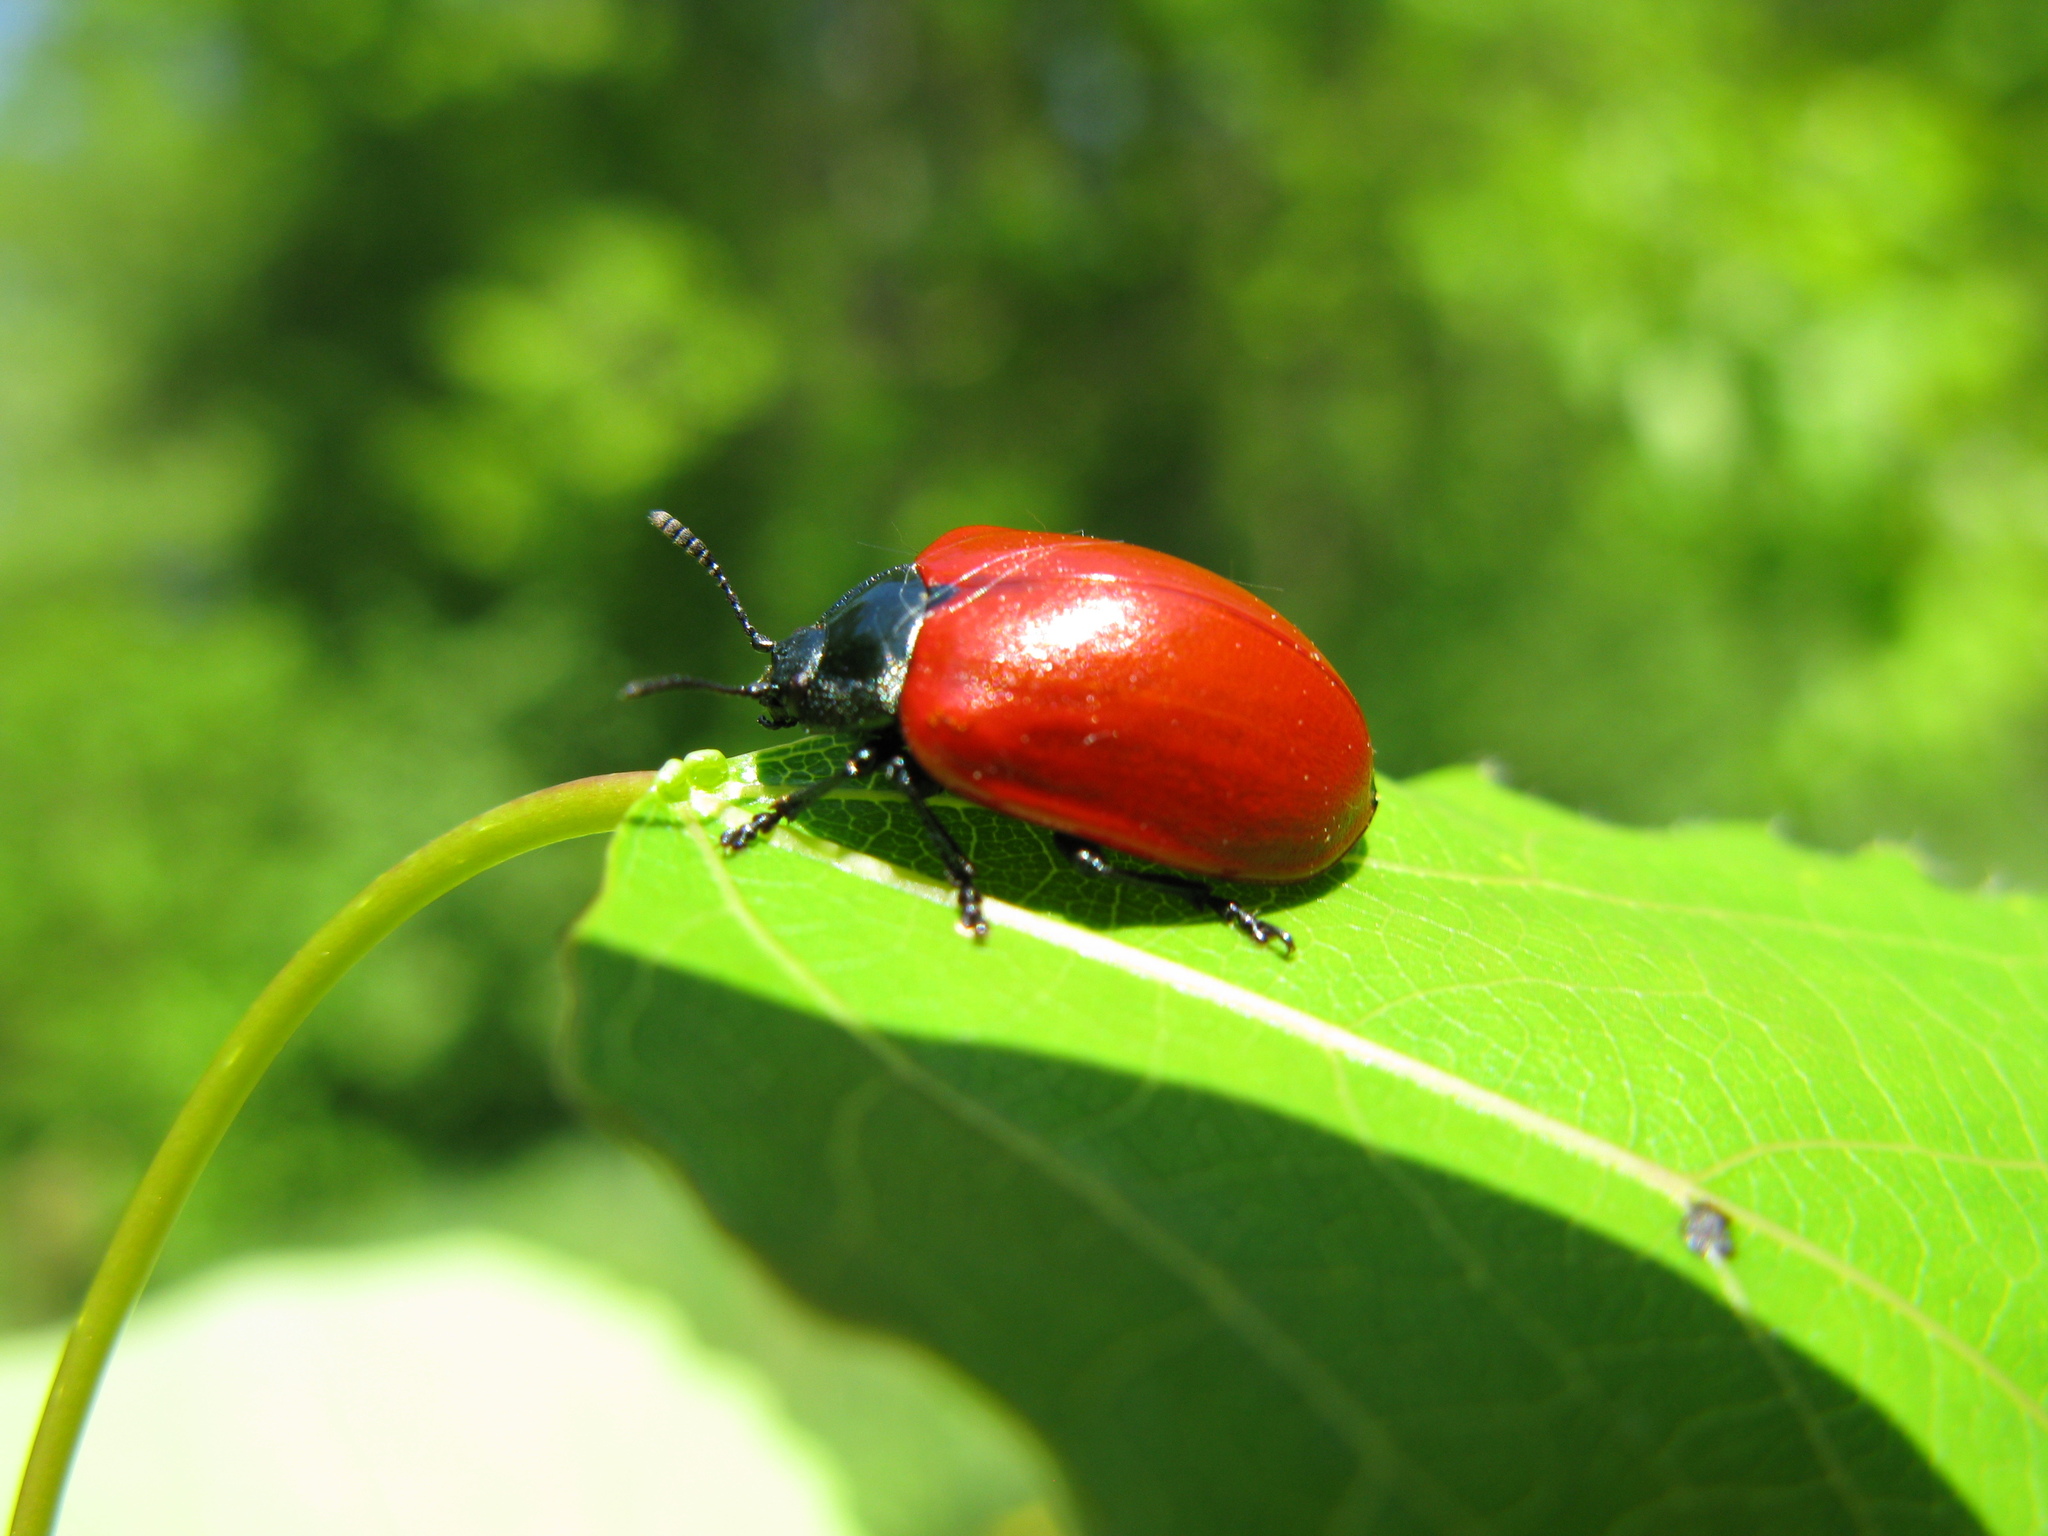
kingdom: Animalia
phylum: Arthropoda
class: Insecta
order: Coleoptera
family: Chrysomelidae
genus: Chrysomela
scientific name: Chrysomela populi
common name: Red poplar leaf beetle
